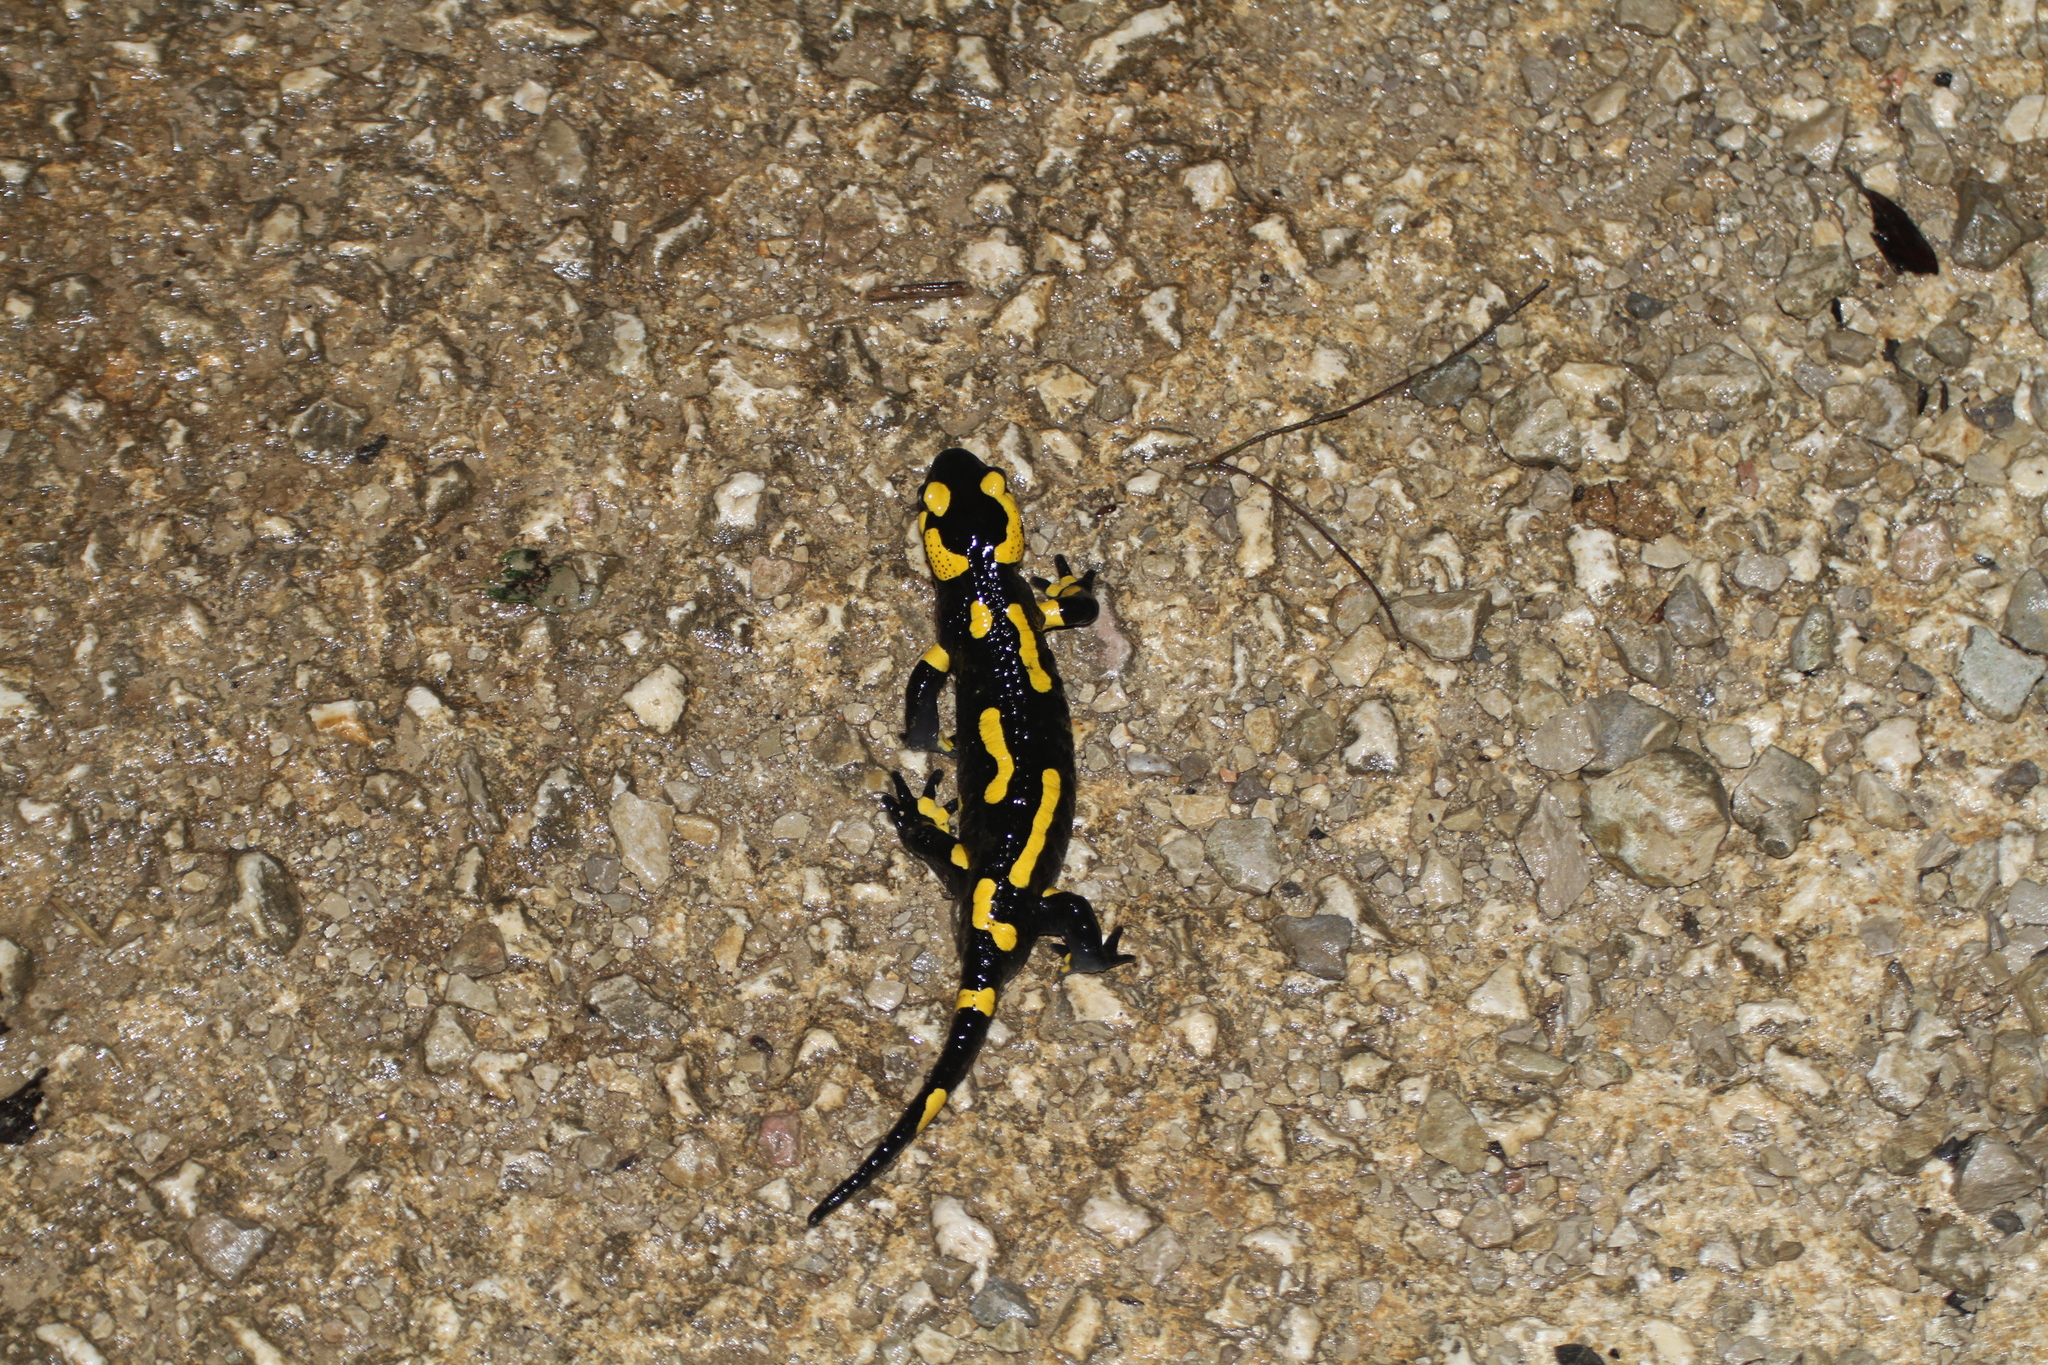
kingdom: Animalia
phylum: Chordata
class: Amphibia
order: Caudata
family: Salamandridae
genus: Salamandra
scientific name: Salamandra salamandra
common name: Fire salamander
